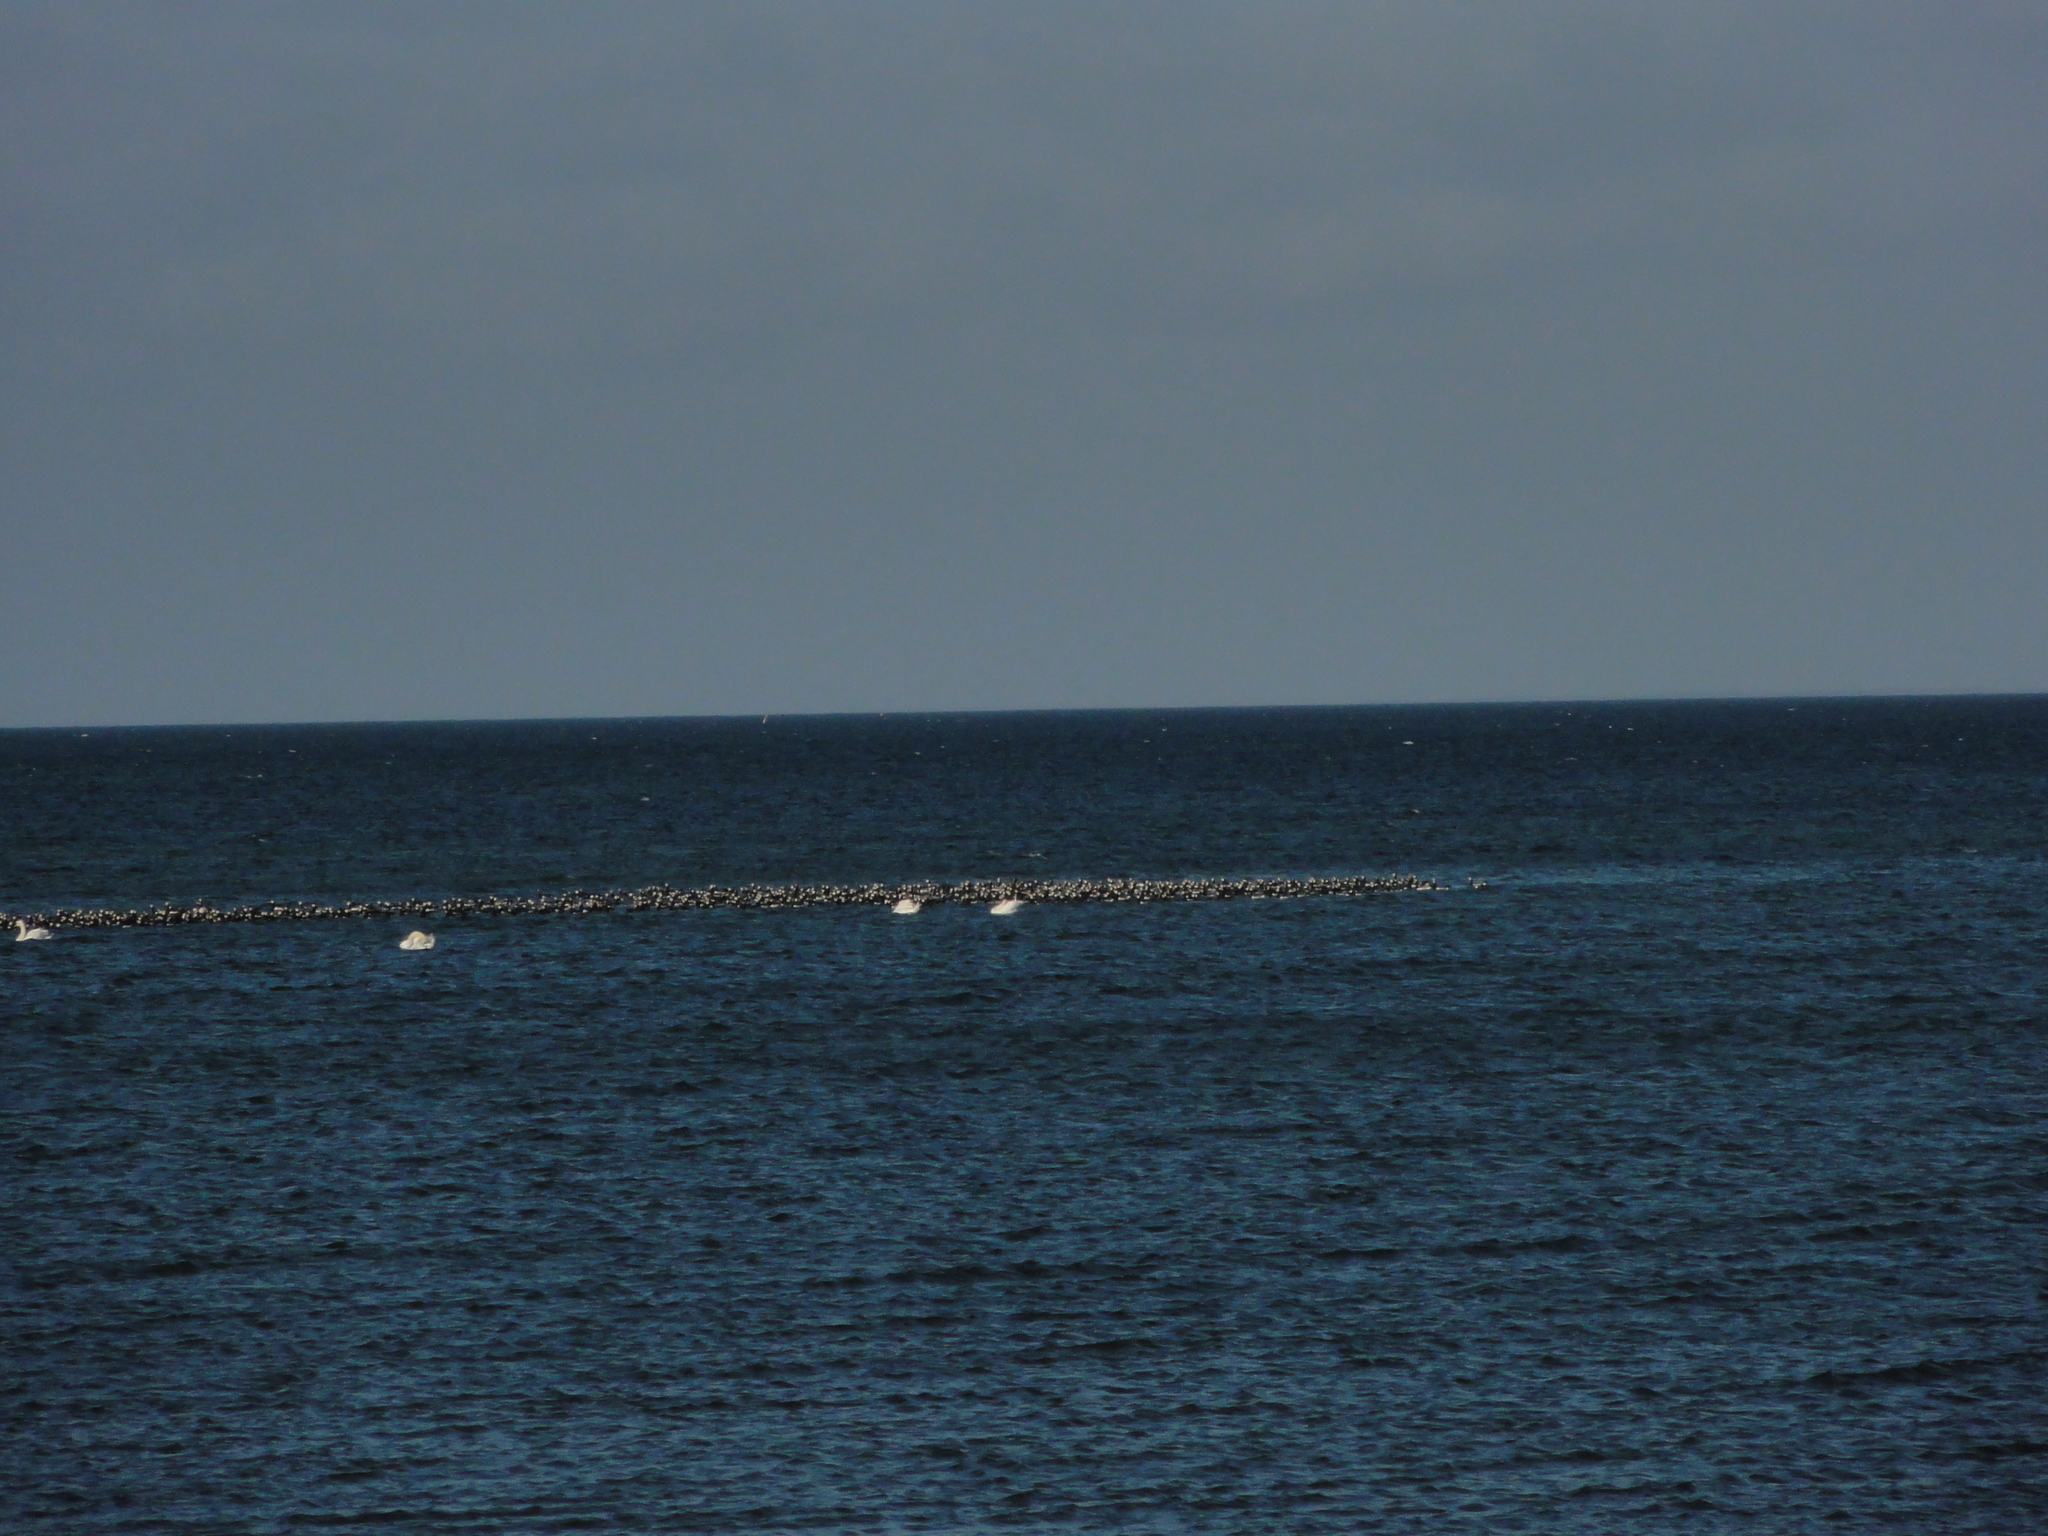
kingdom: Animalia
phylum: Chordata
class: Aves
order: Anseriformes
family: Anatidae
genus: Branta
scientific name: Branta leucopsis
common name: Barnacle goose
